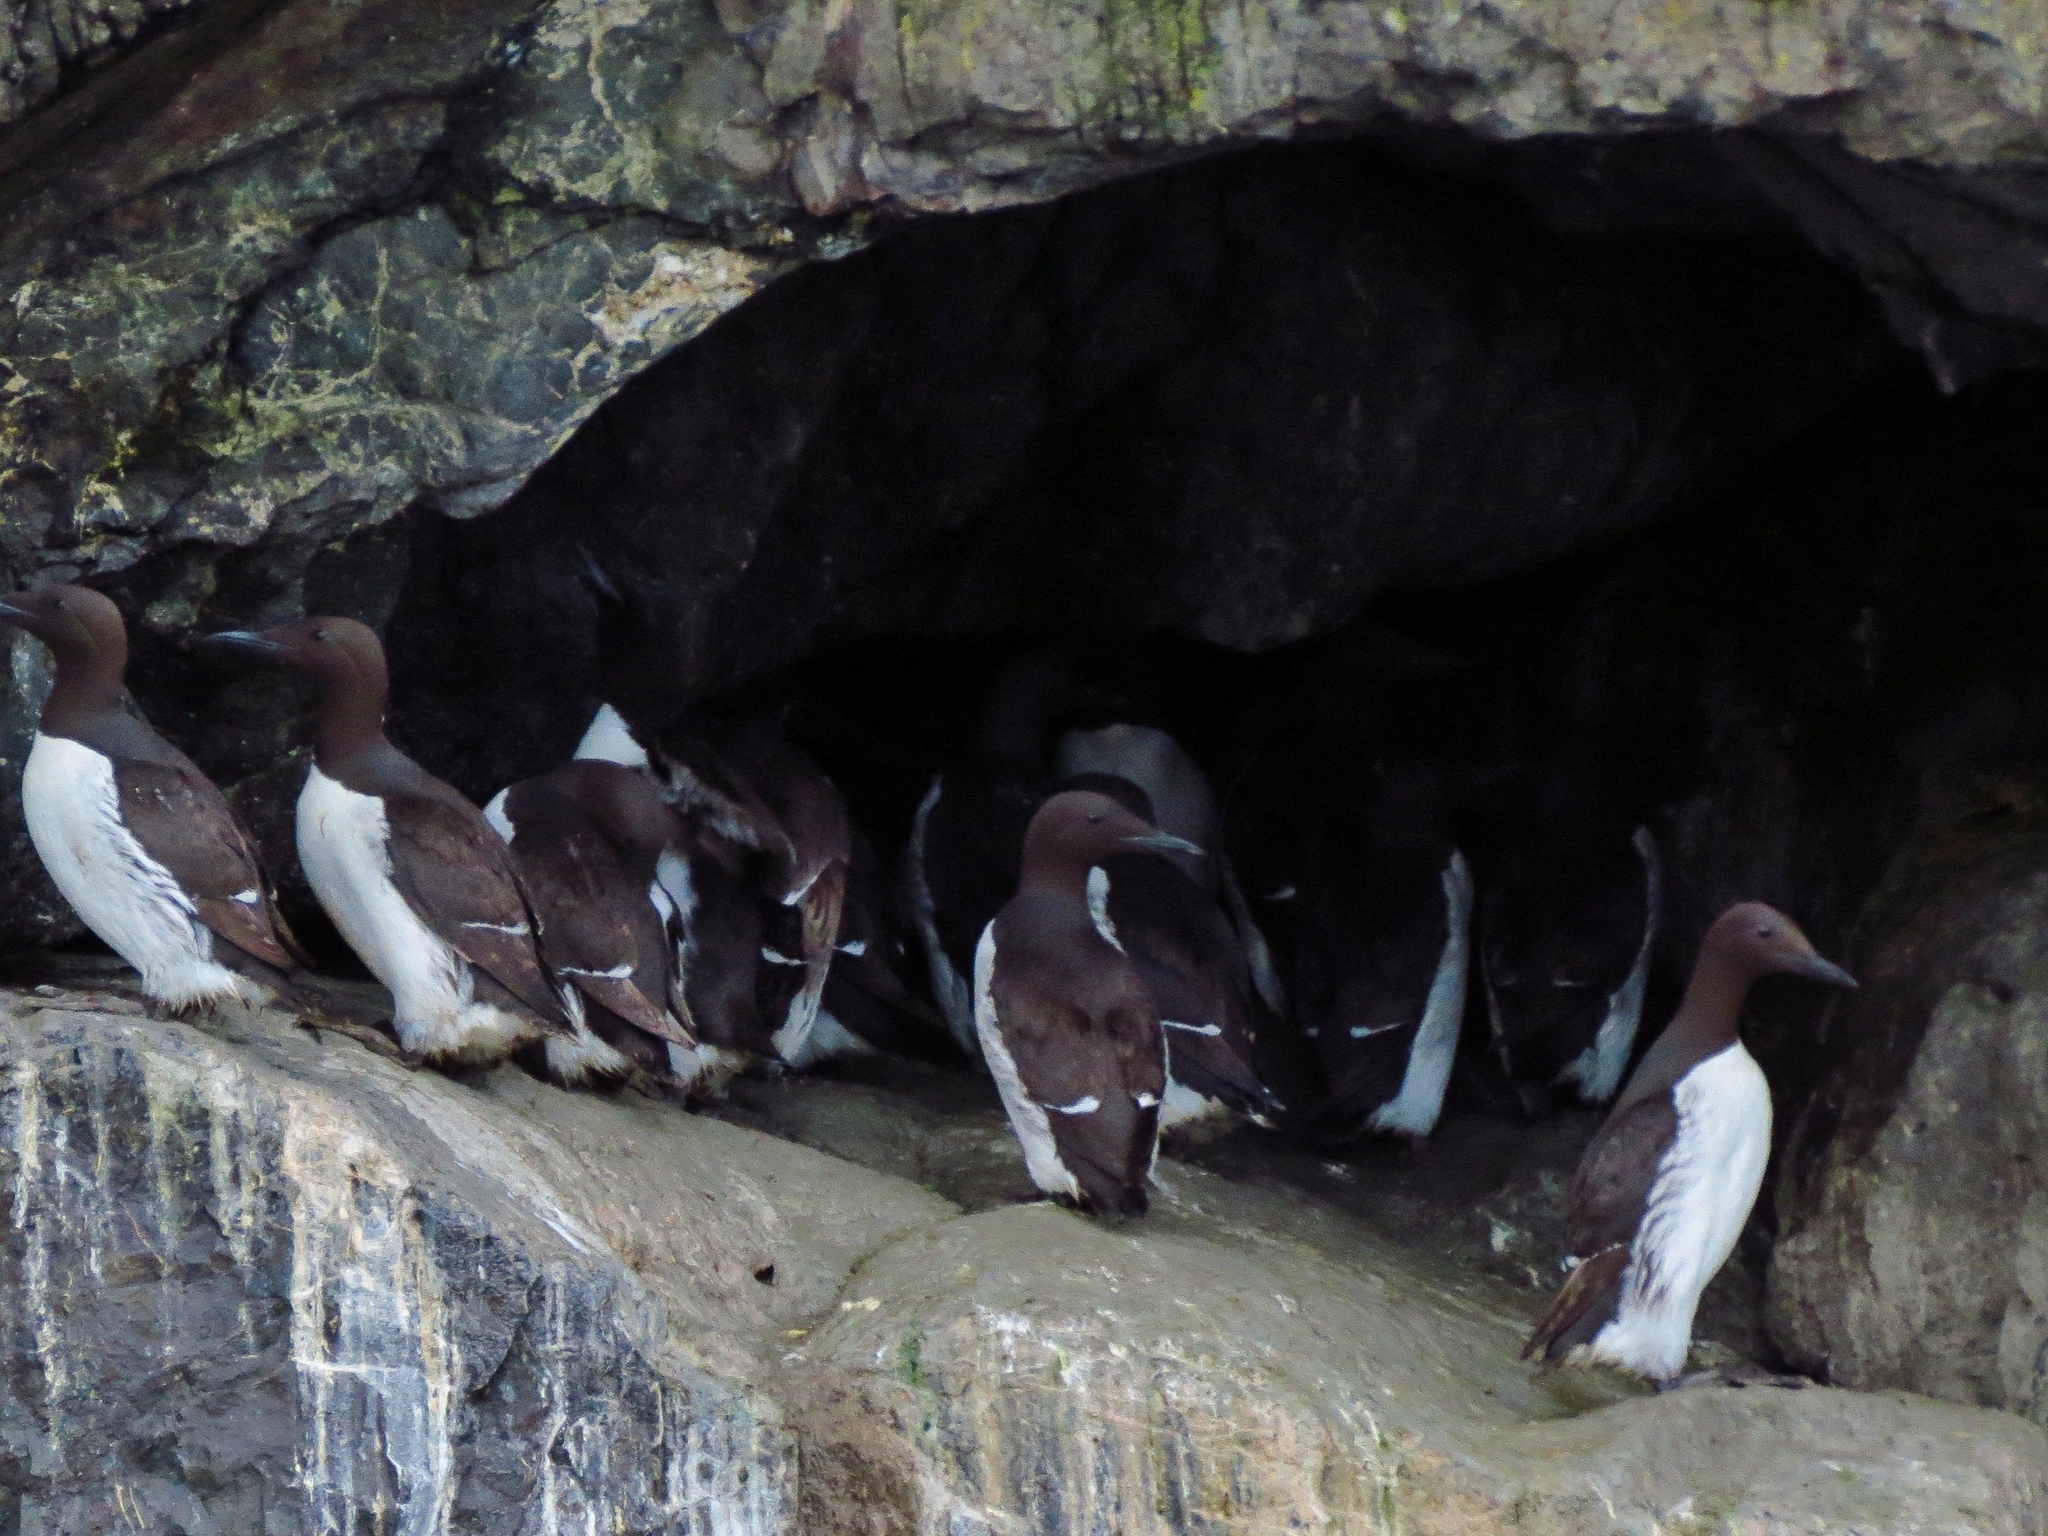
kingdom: Animalia
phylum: Chordata
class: Aves
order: Charadriiformes
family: Alcidae
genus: Uria
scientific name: Uria aalge
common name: Common murre
